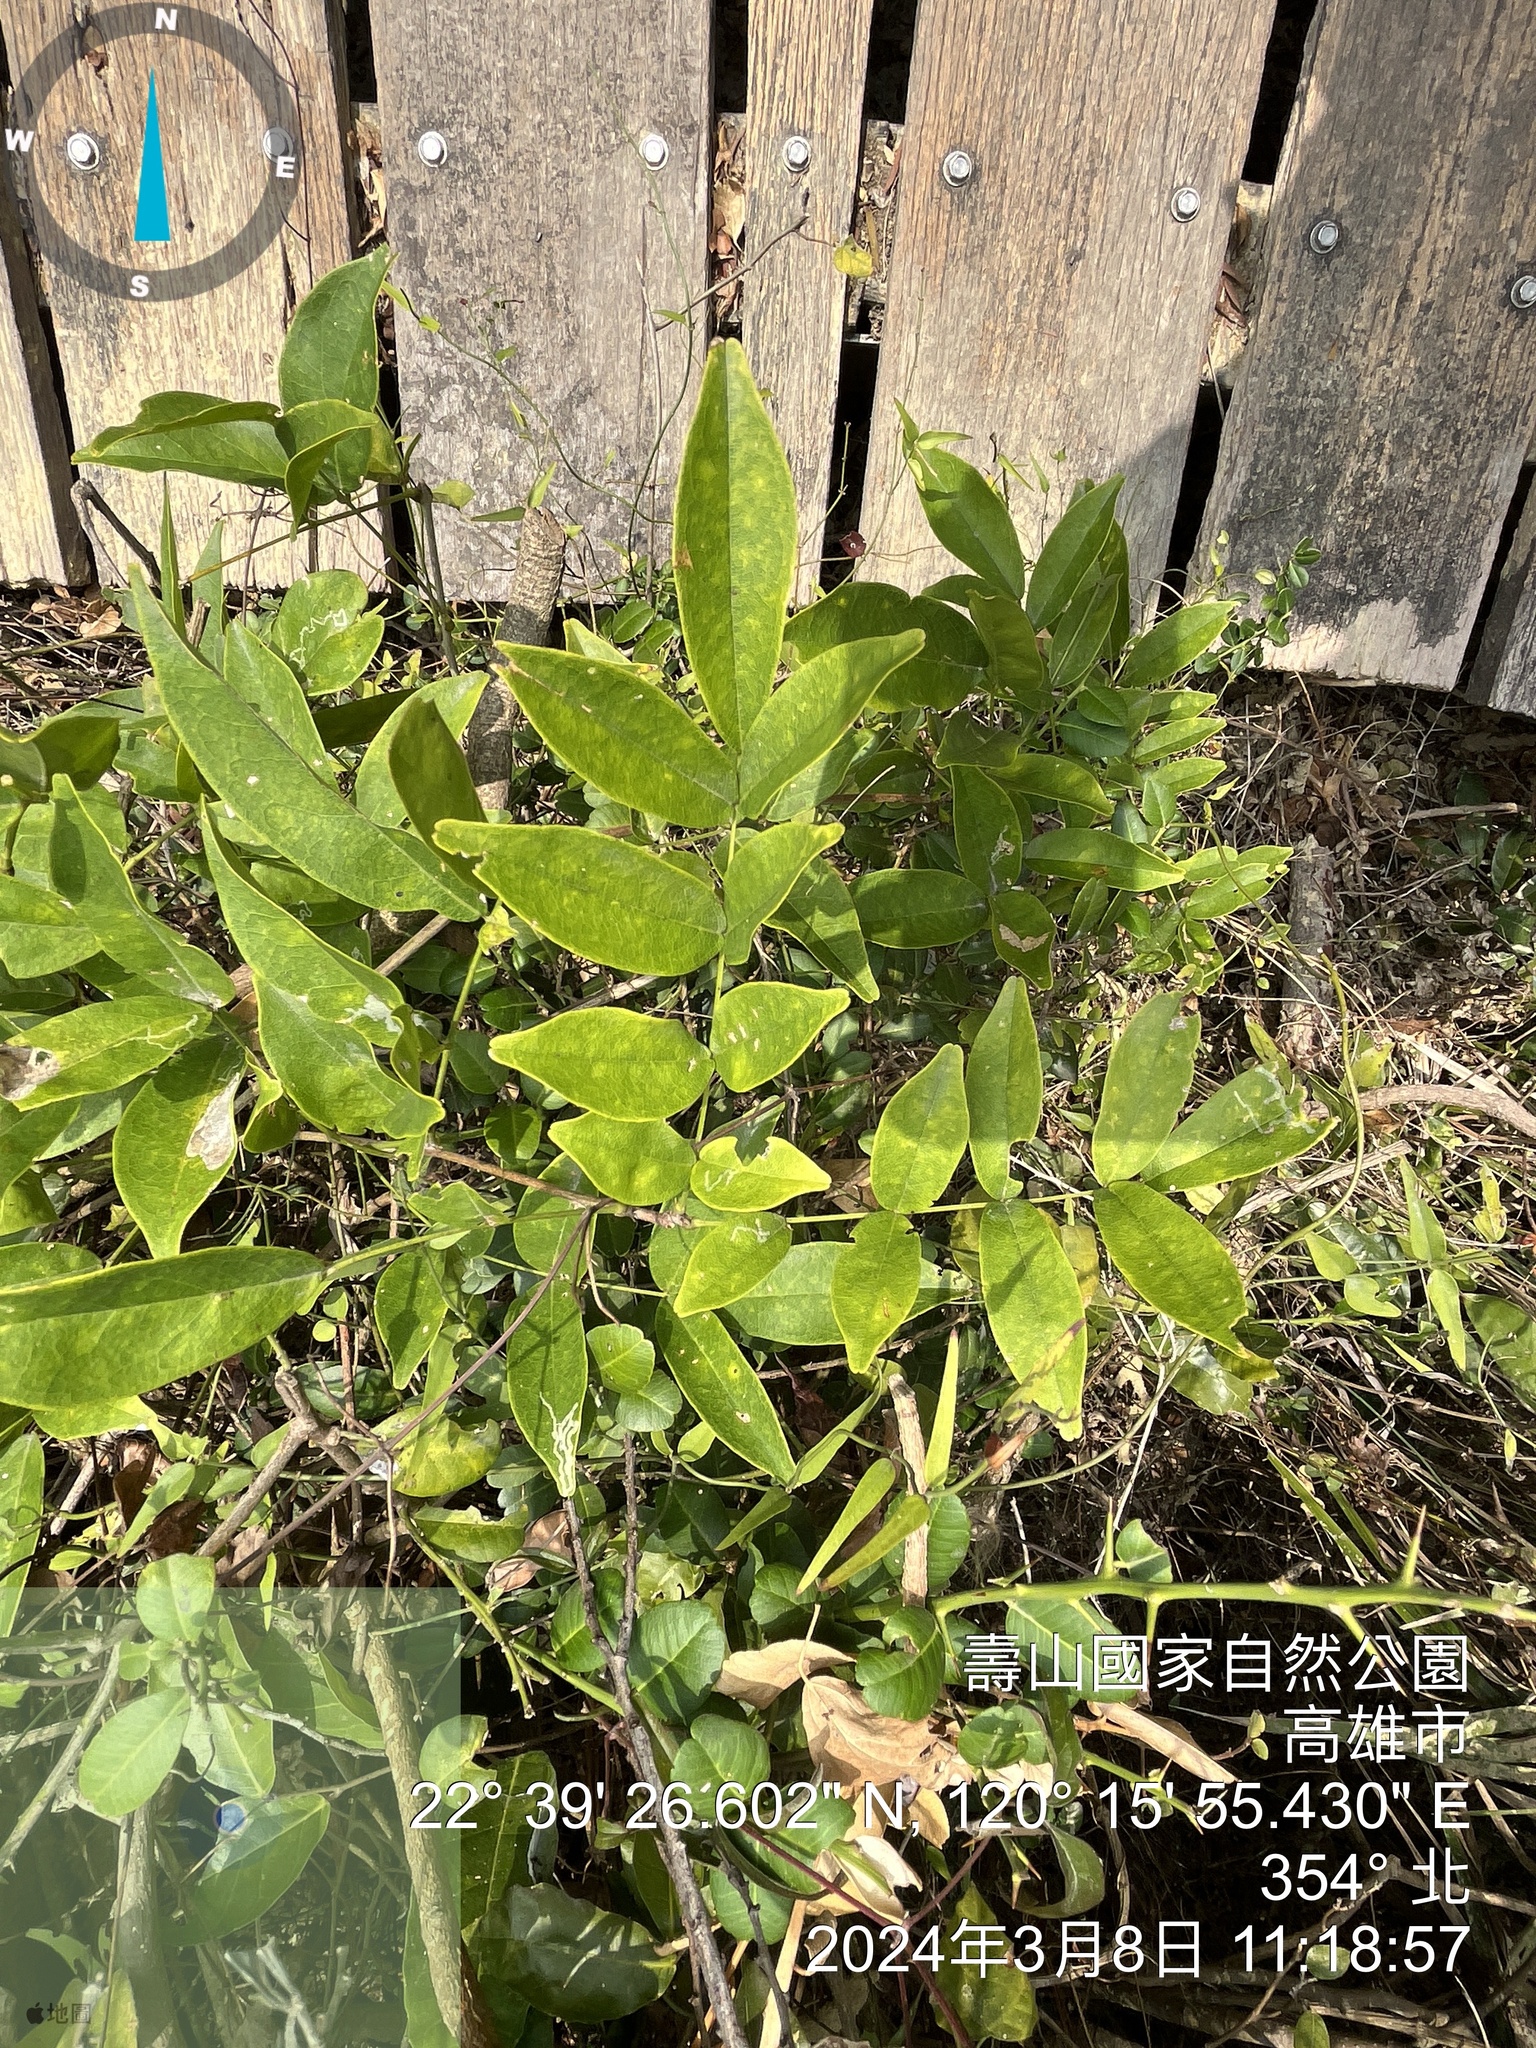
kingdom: Plantae
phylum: Tracheophyta
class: Magnoliopsida
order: Fabales
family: Fabaceae
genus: Wisteriopsis
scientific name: Wisteriopsis reticulata
